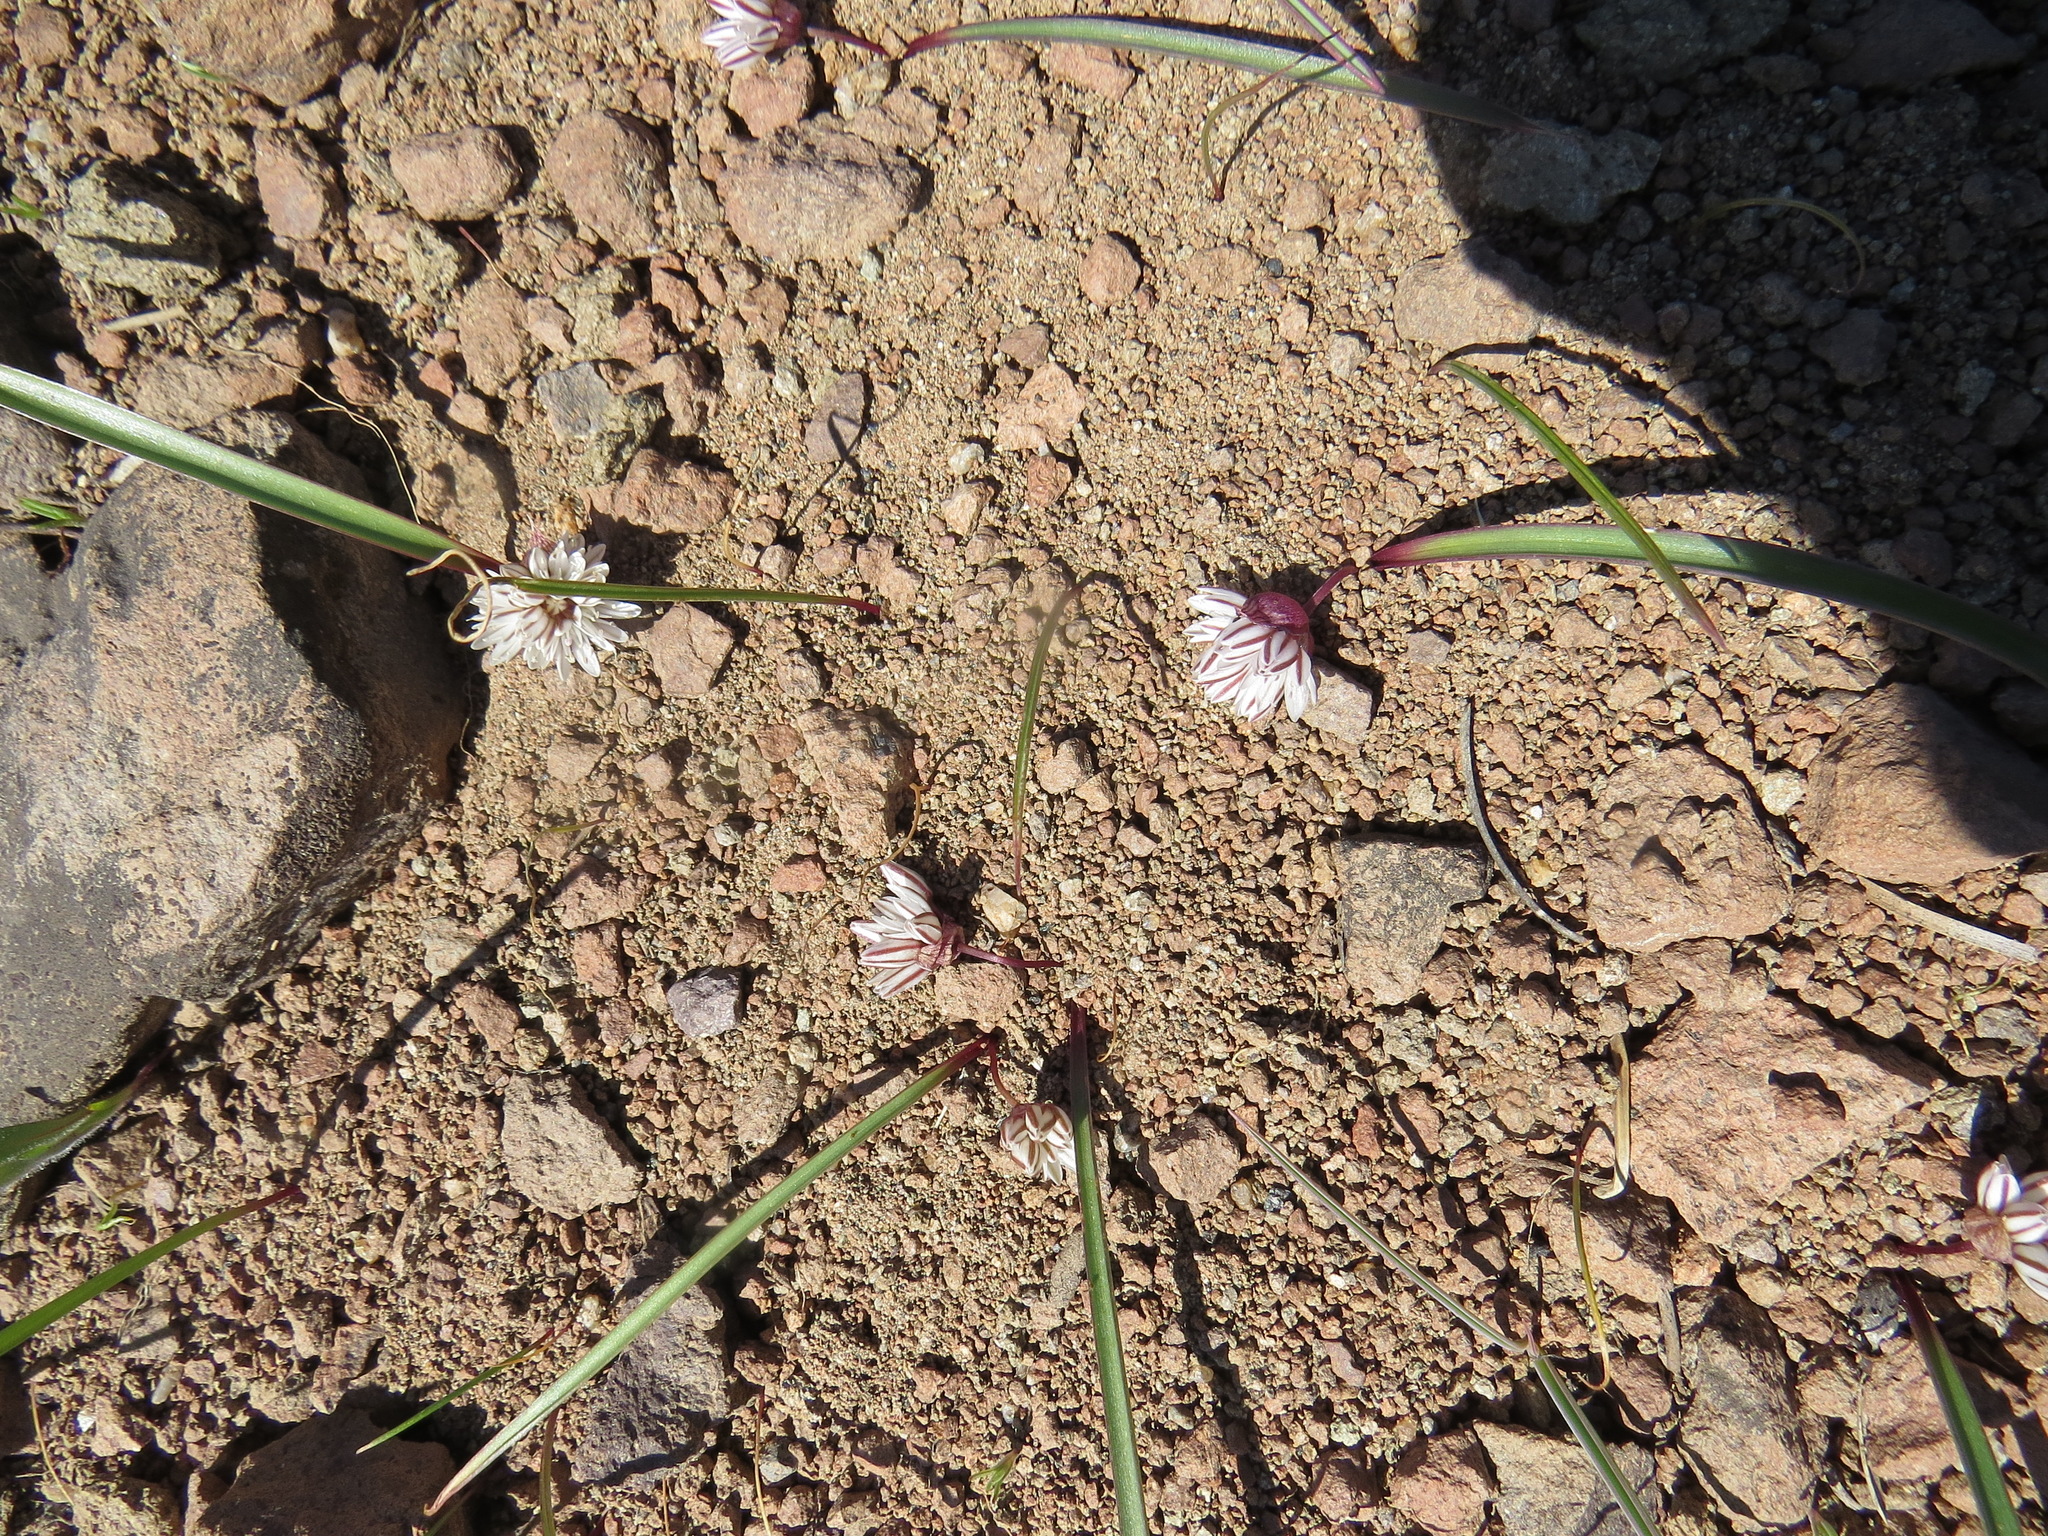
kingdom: Plantae
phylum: Tracheophyta
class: Liliopsida
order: Asparagales
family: Amaryllidaceae
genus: Allium
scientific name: Allium obtusum
